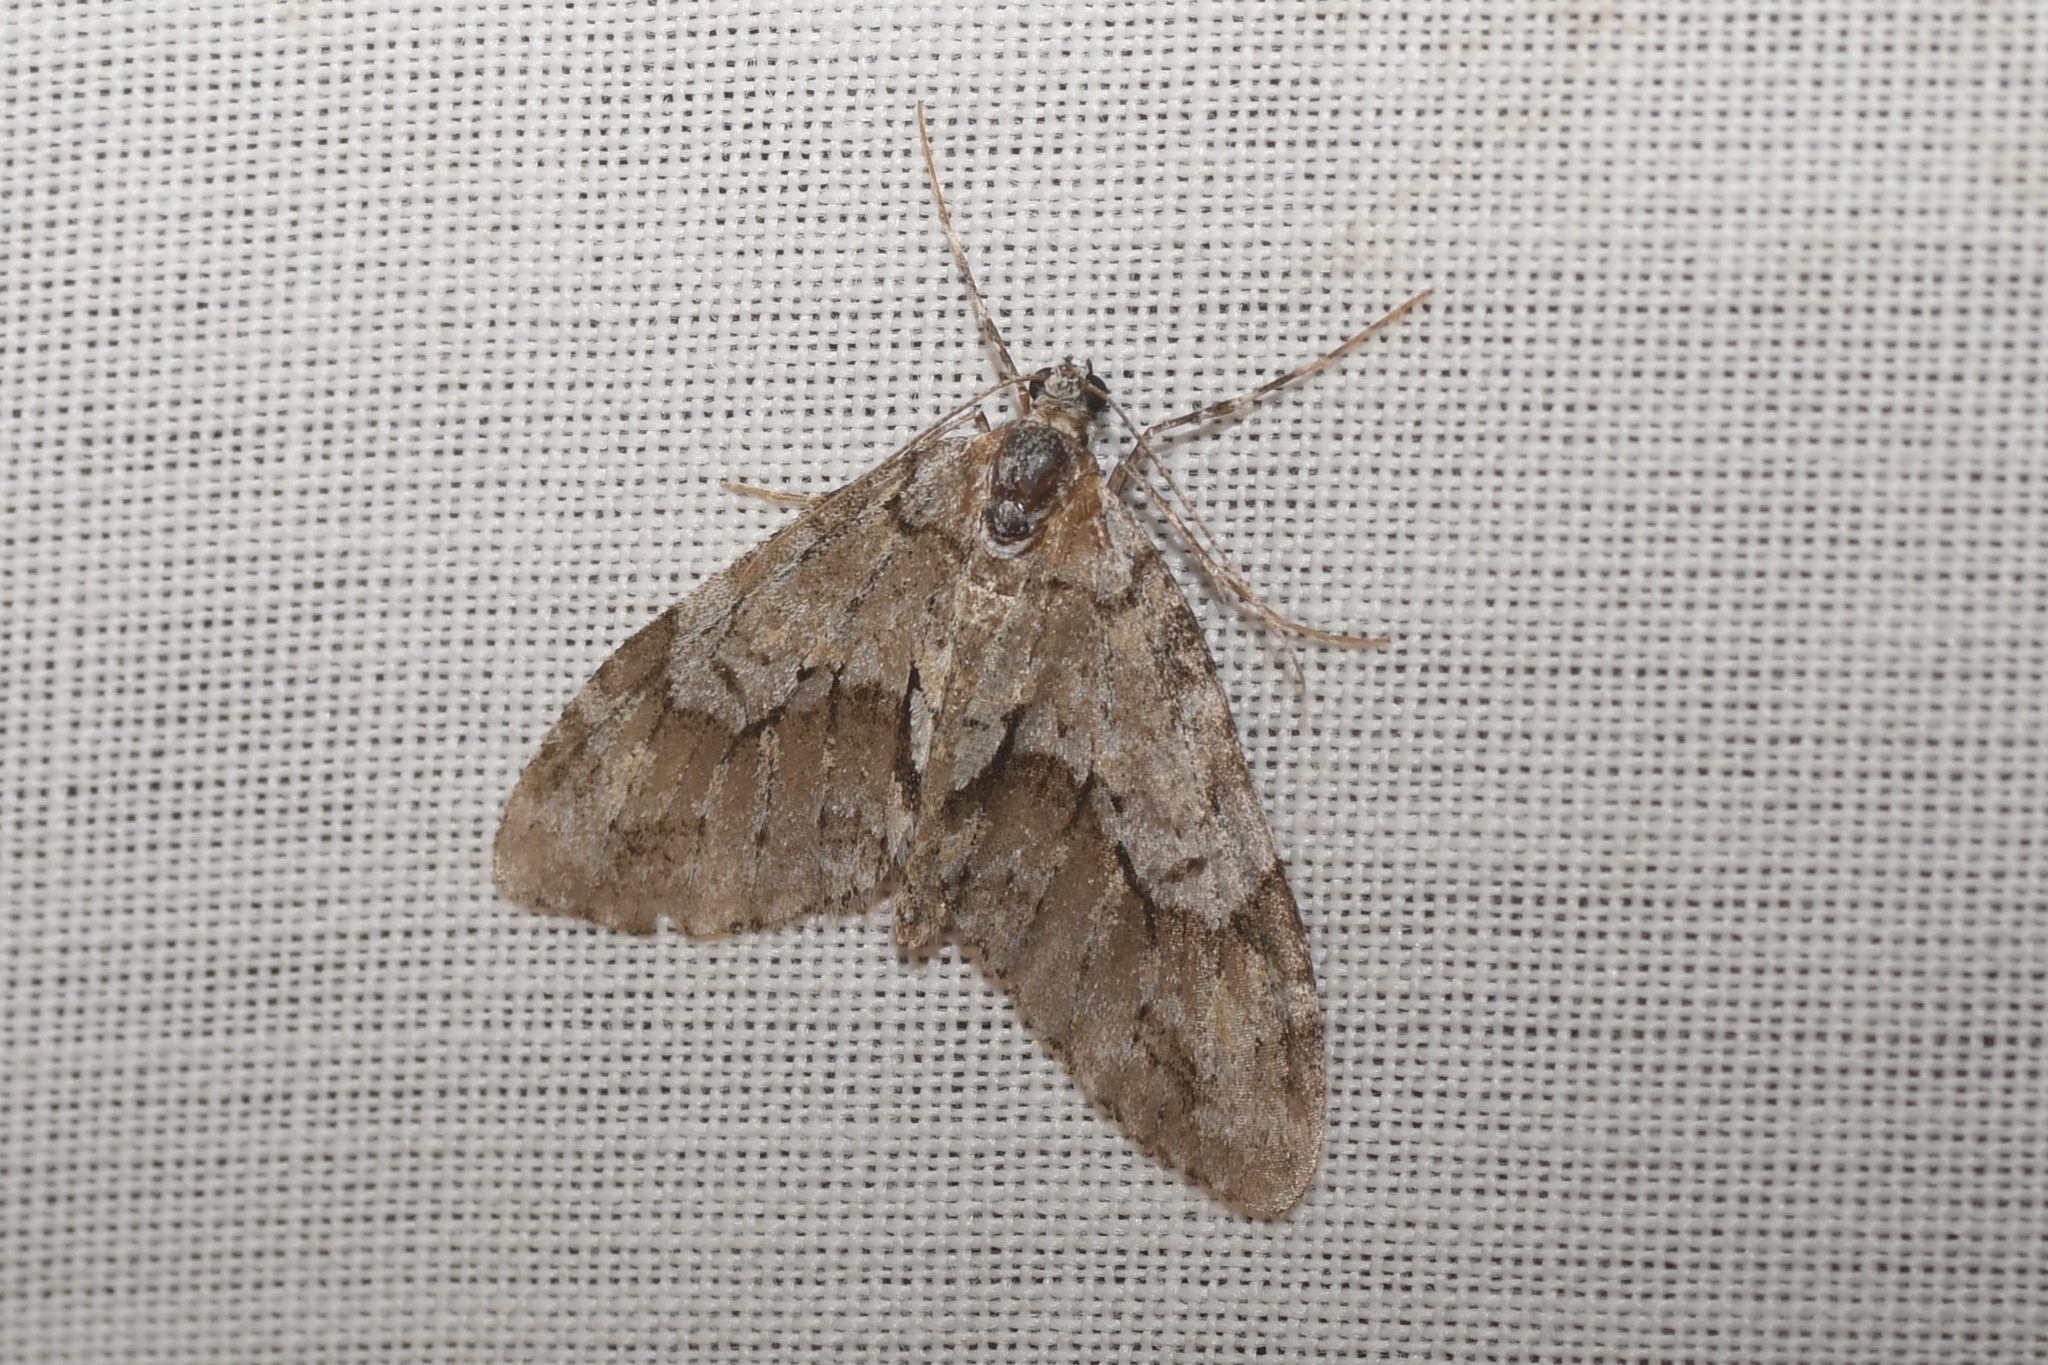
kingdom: Animalia
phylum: Arthropoda
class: Insecta
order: Lepidoptera
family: Geometridae
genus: Cladara
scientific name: Cladara limitaria
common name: Mottled gray carpet
